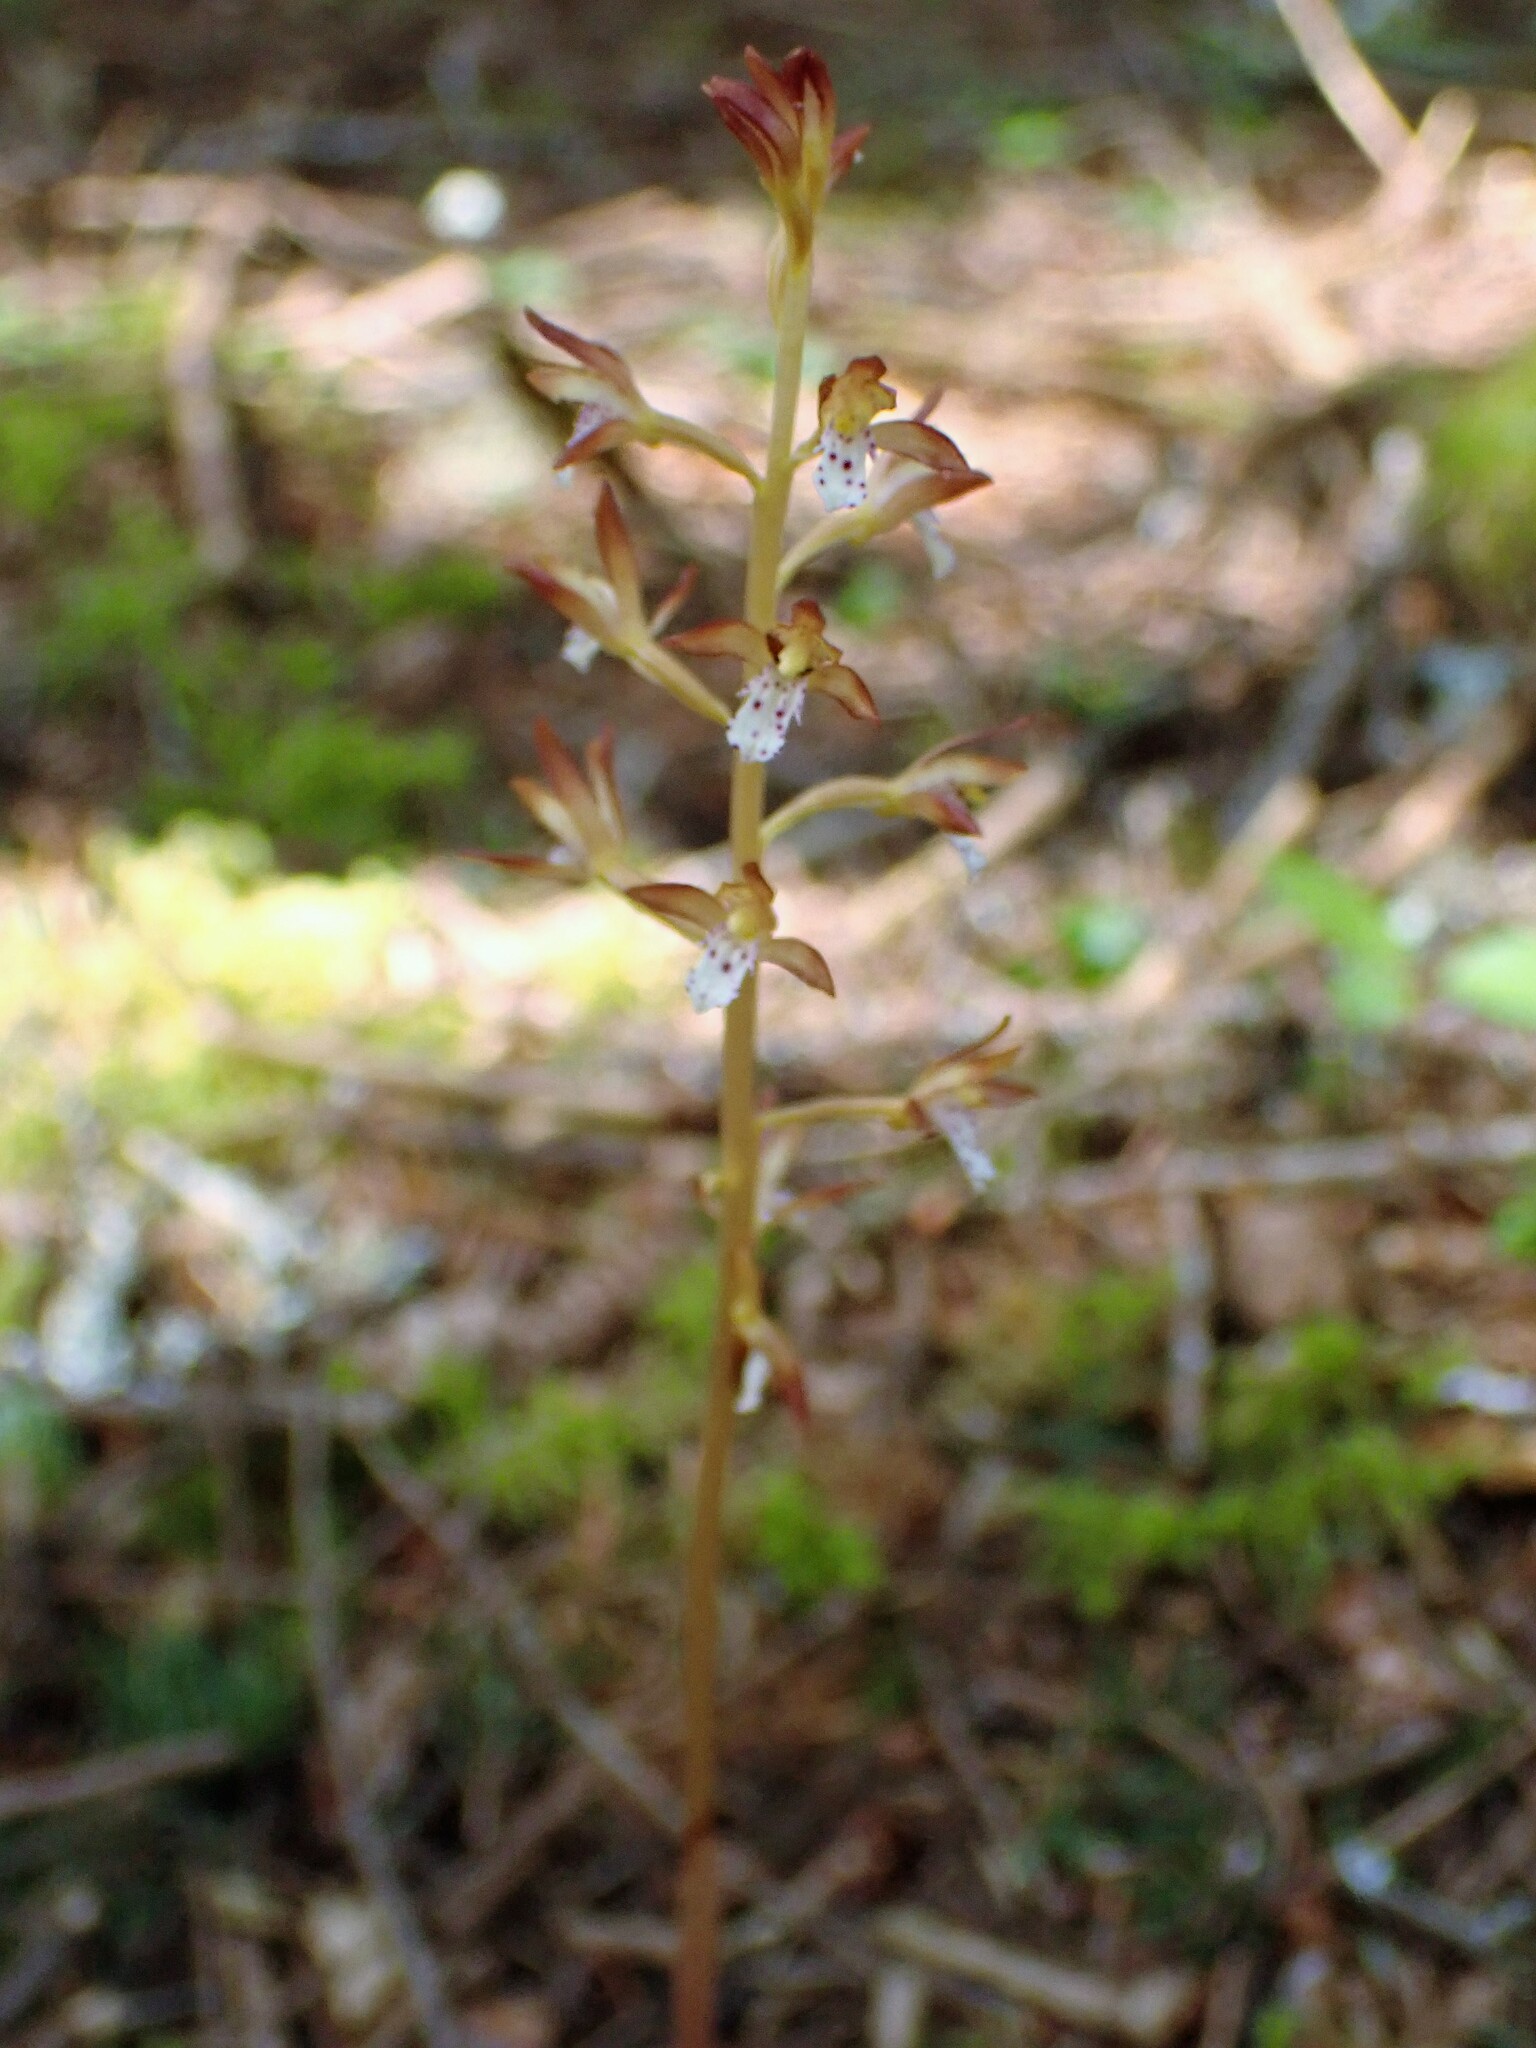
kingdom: Plantae
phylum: Tracheophyta
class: Liliopsida
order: Asparagales
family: Orchidaceae
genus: Corallorhiza
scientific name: Corallorhiza maculata
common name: Spotted coralroot
